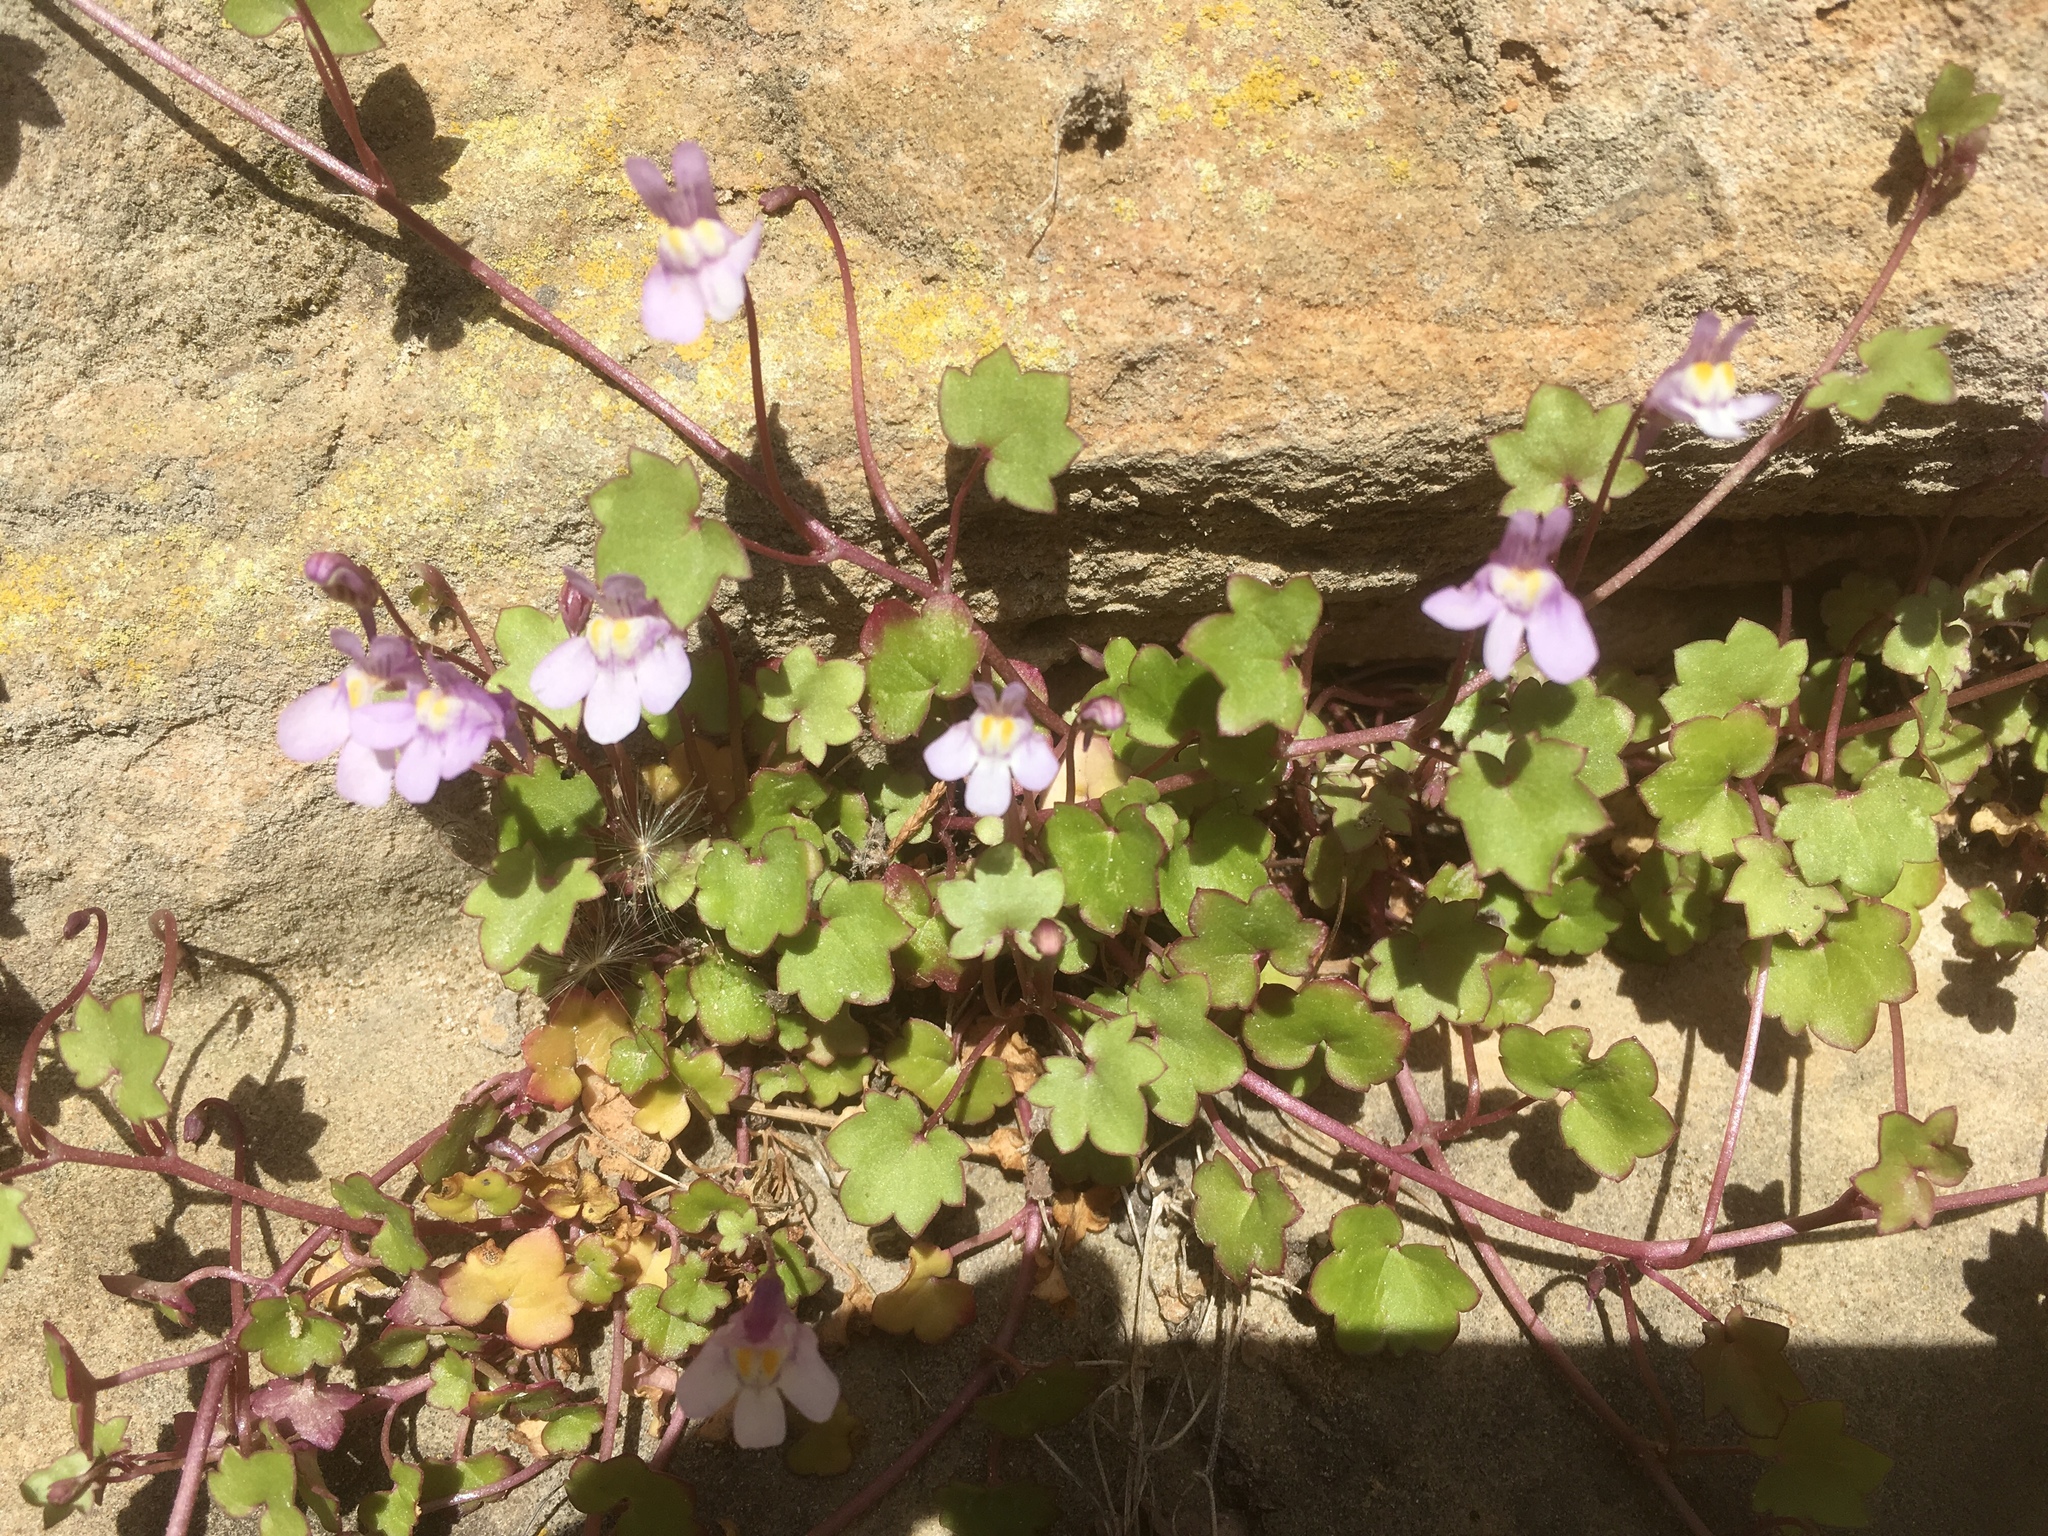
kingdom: Plantae
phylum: Tracheophyta
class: Magnoliopsida
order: Lamiales
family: Plantaginaceae
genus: Cymbalaria
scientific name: Cymbalaria muralis
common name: Ivy-leaved toadflax
